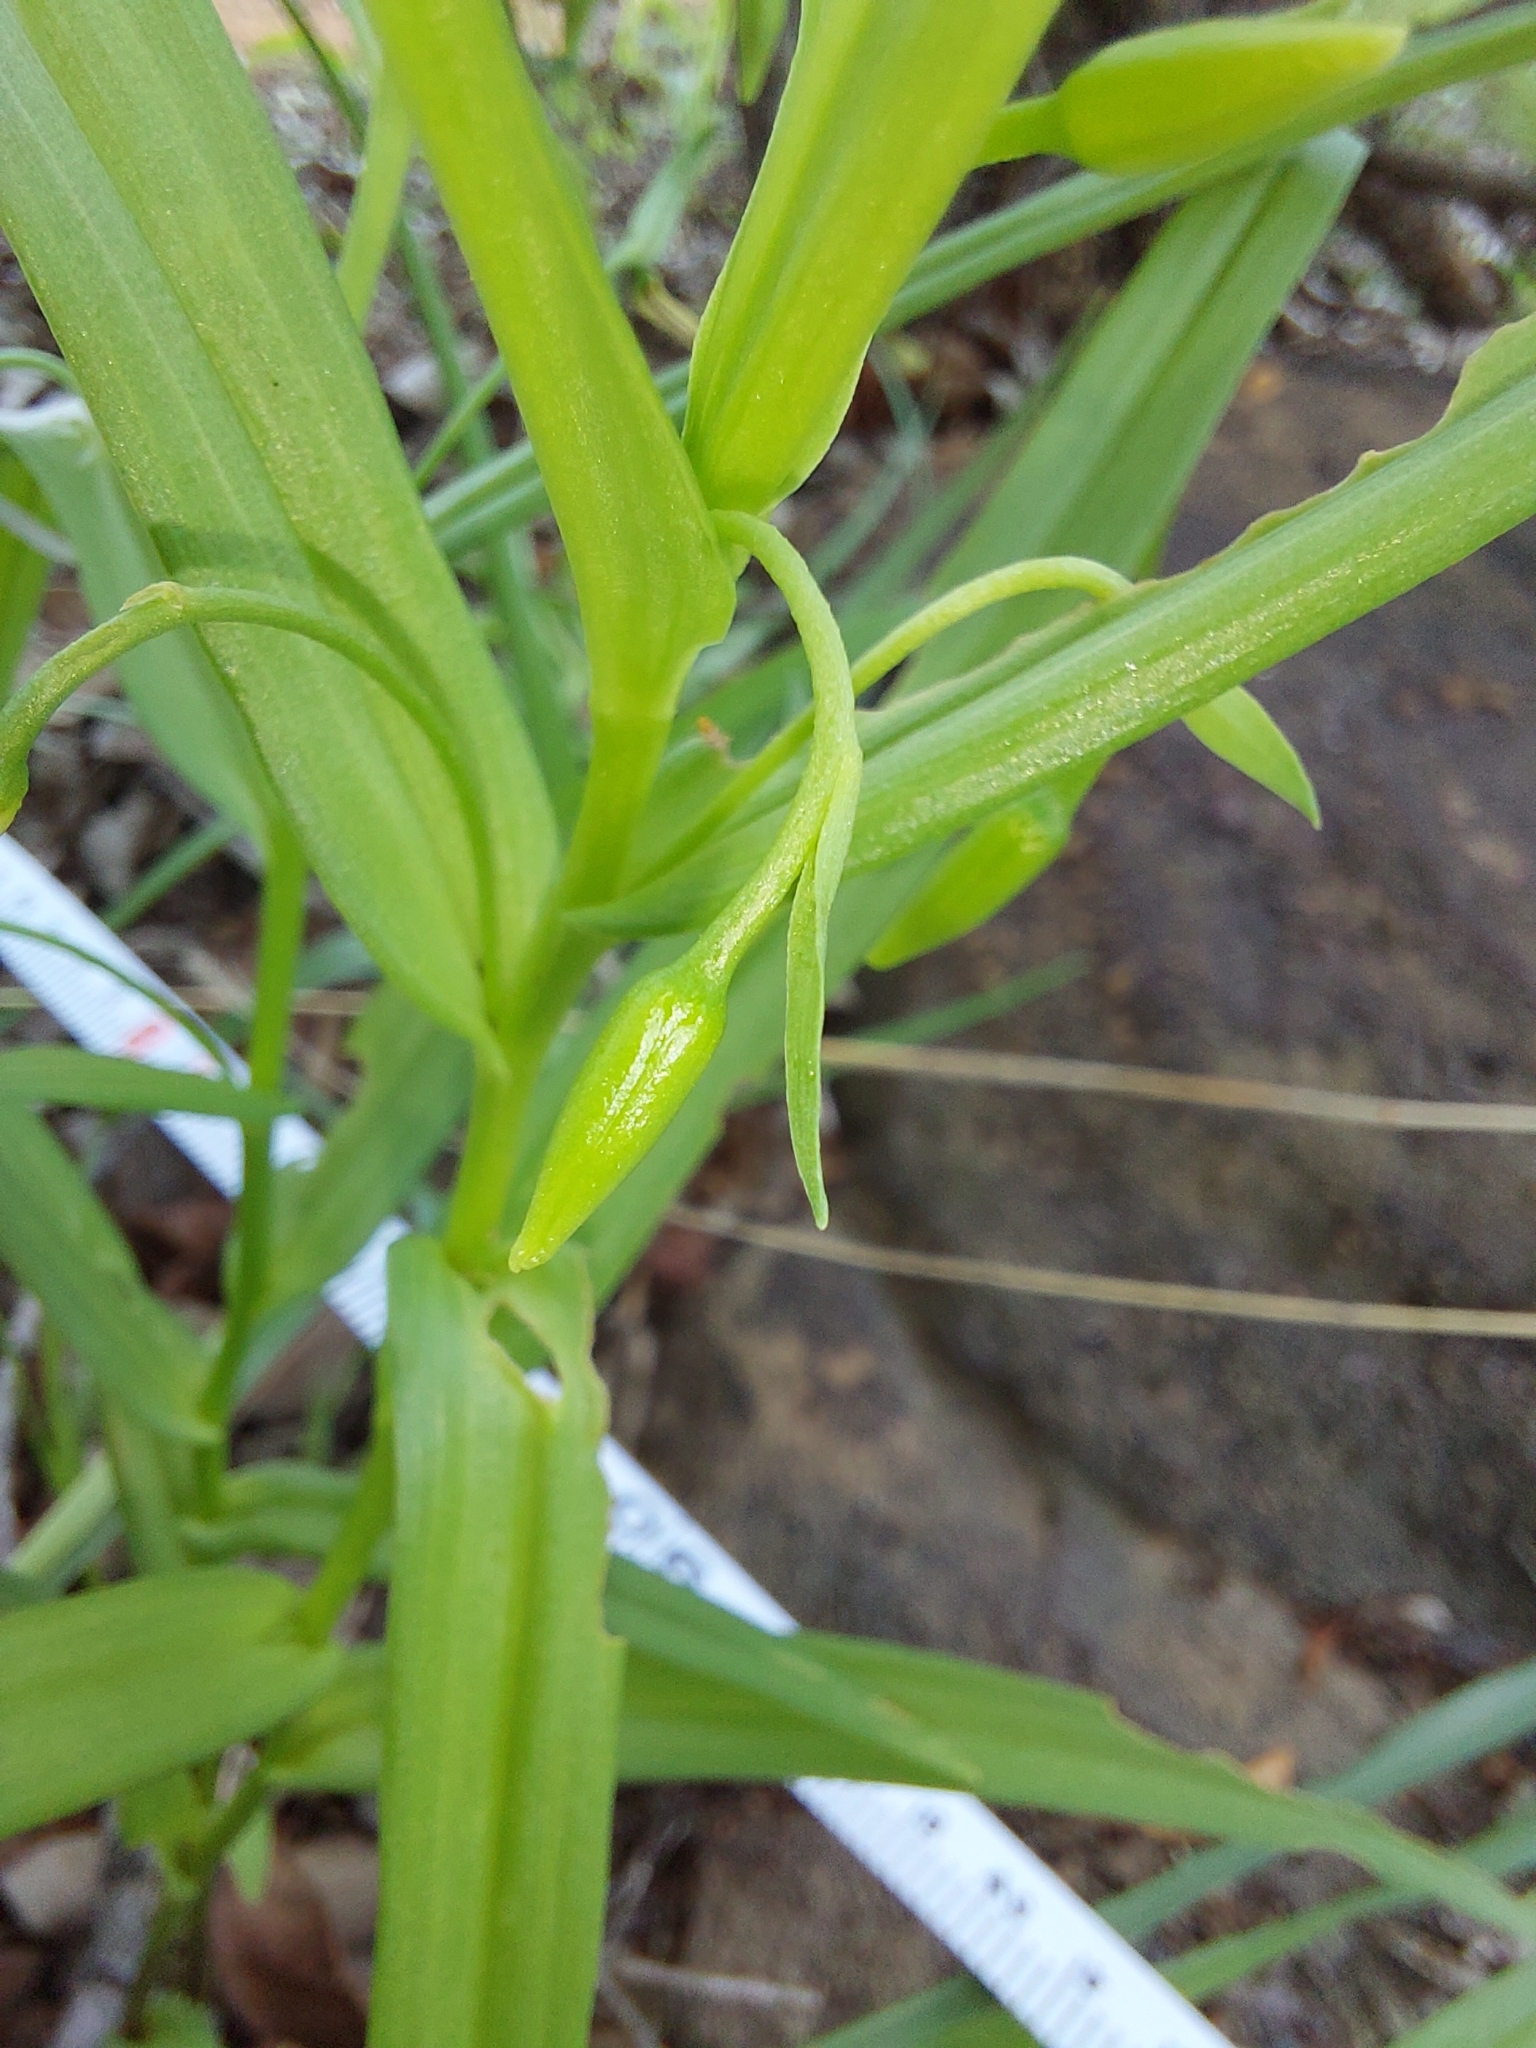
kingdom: Plantae
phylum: Tracheophyta
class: Liliopsida
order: Asparagales
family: Tecophilaeaceae
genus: Walleria
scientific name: Walleria nutans
